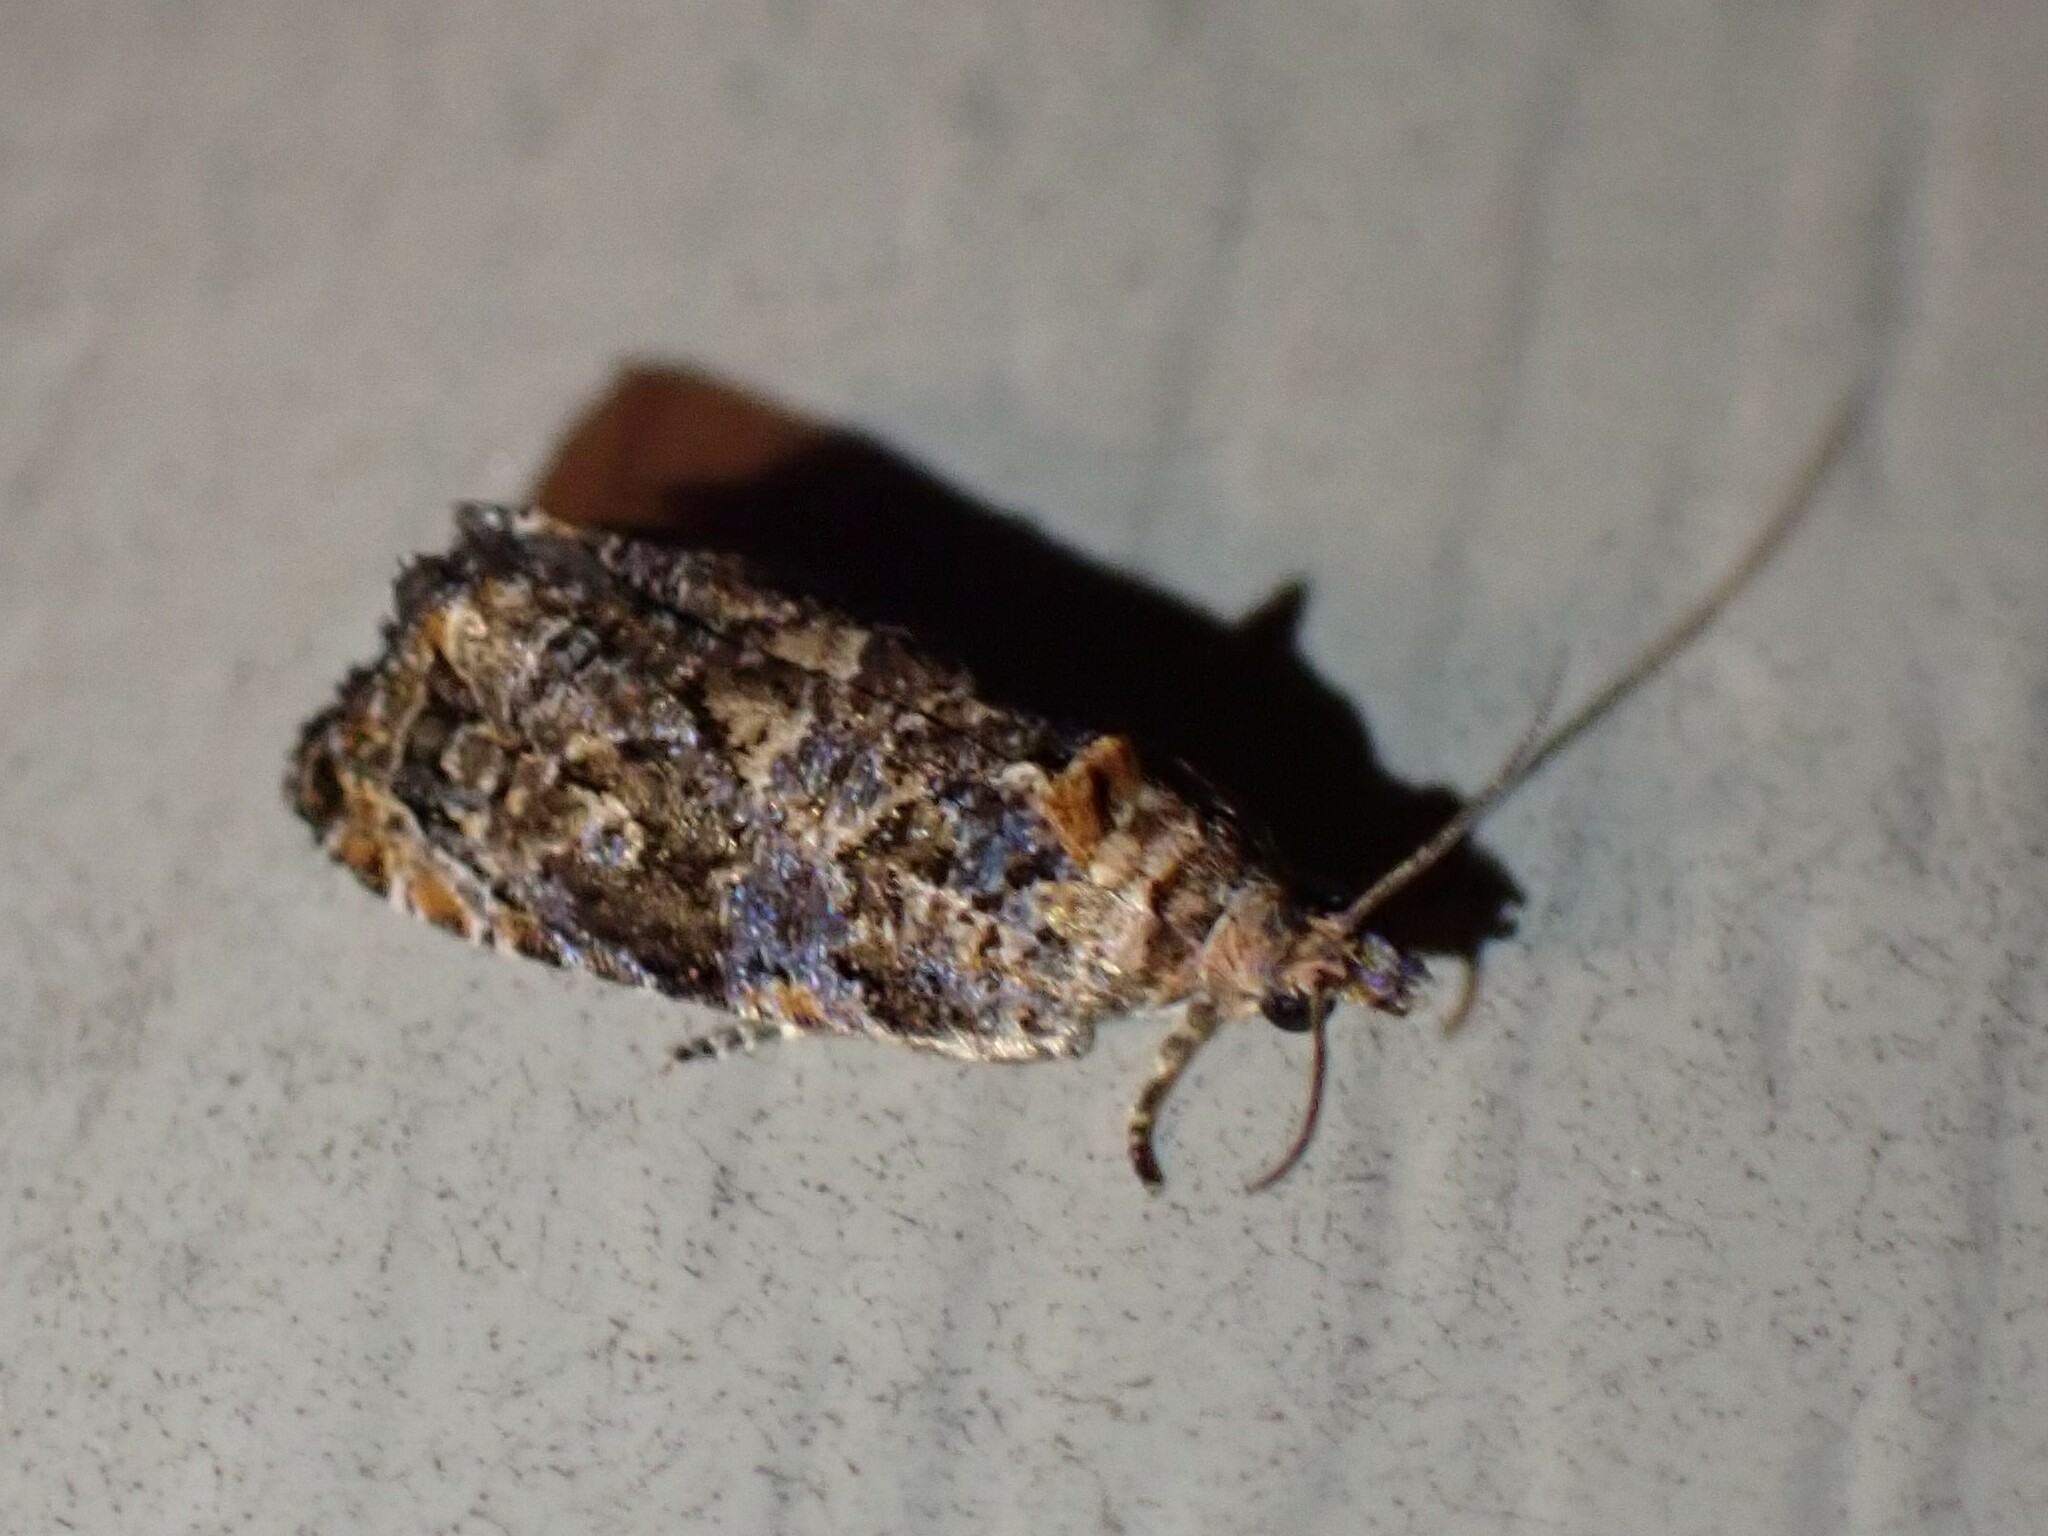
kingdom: Animalia
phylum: Arthropoda
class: Insecta
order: Lepidoptera
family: Tortricidae
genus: Endothenia
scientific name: Endothenia hebesana
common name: Verbena bud moth
